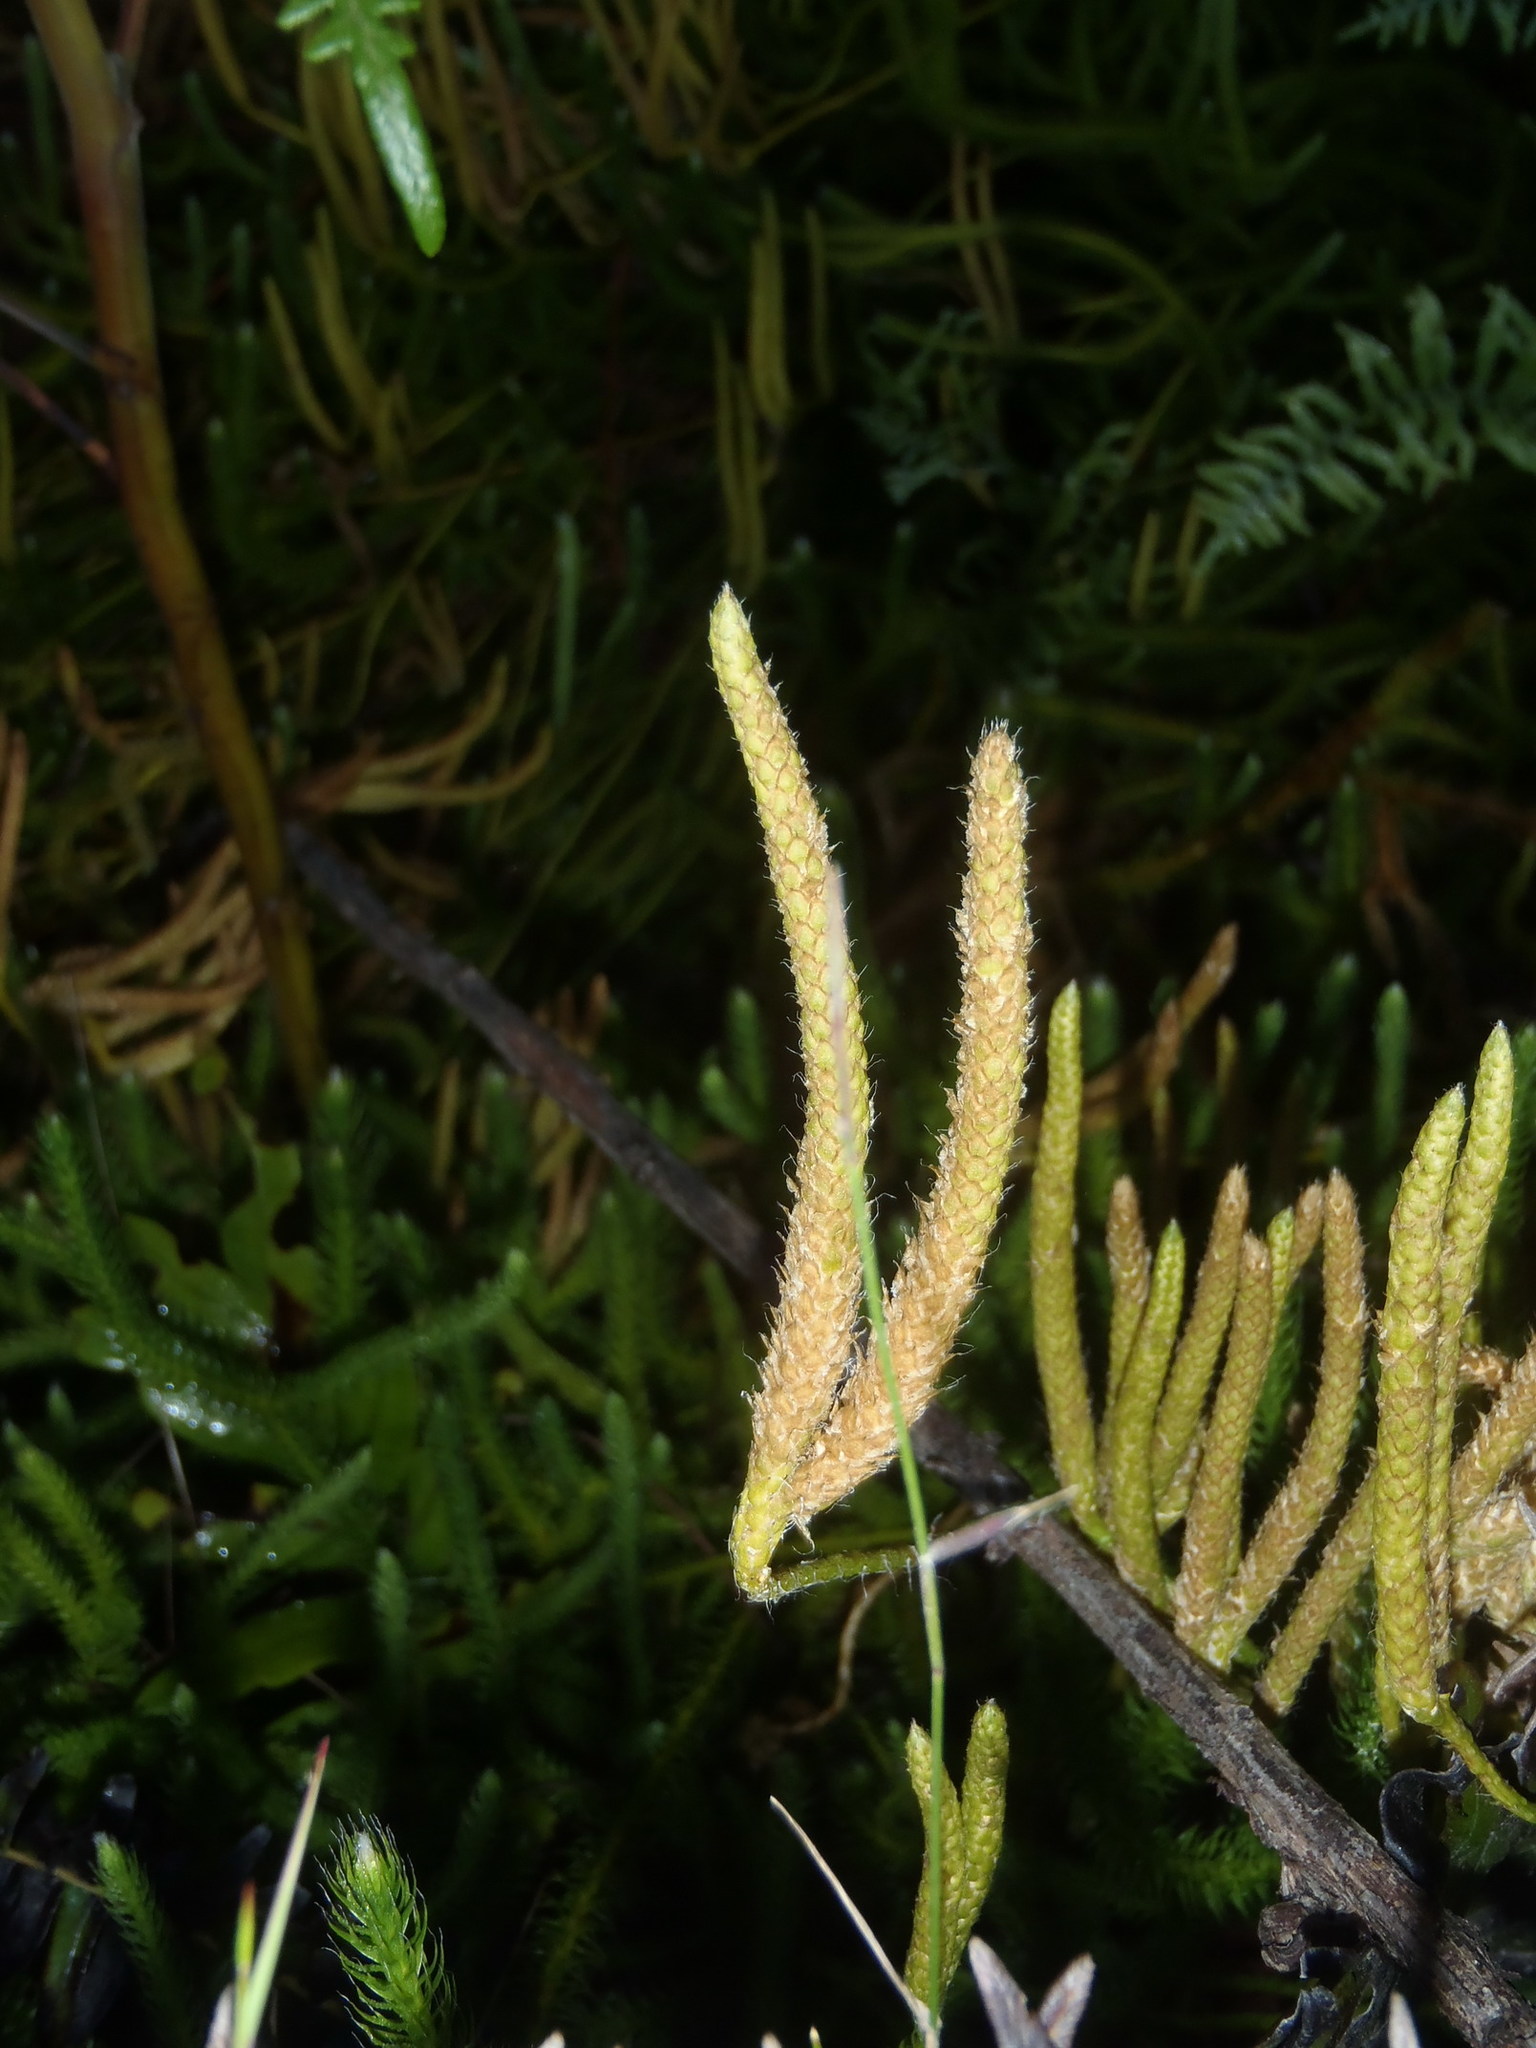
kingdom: Plantae
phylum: Tracheophyta
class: Lycopodiopsida
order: Lycopodiales
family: Lycopodiaceae
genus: Lycopodium
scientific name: Lycopodium clavatum
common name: Stag's-horn clubmoss
